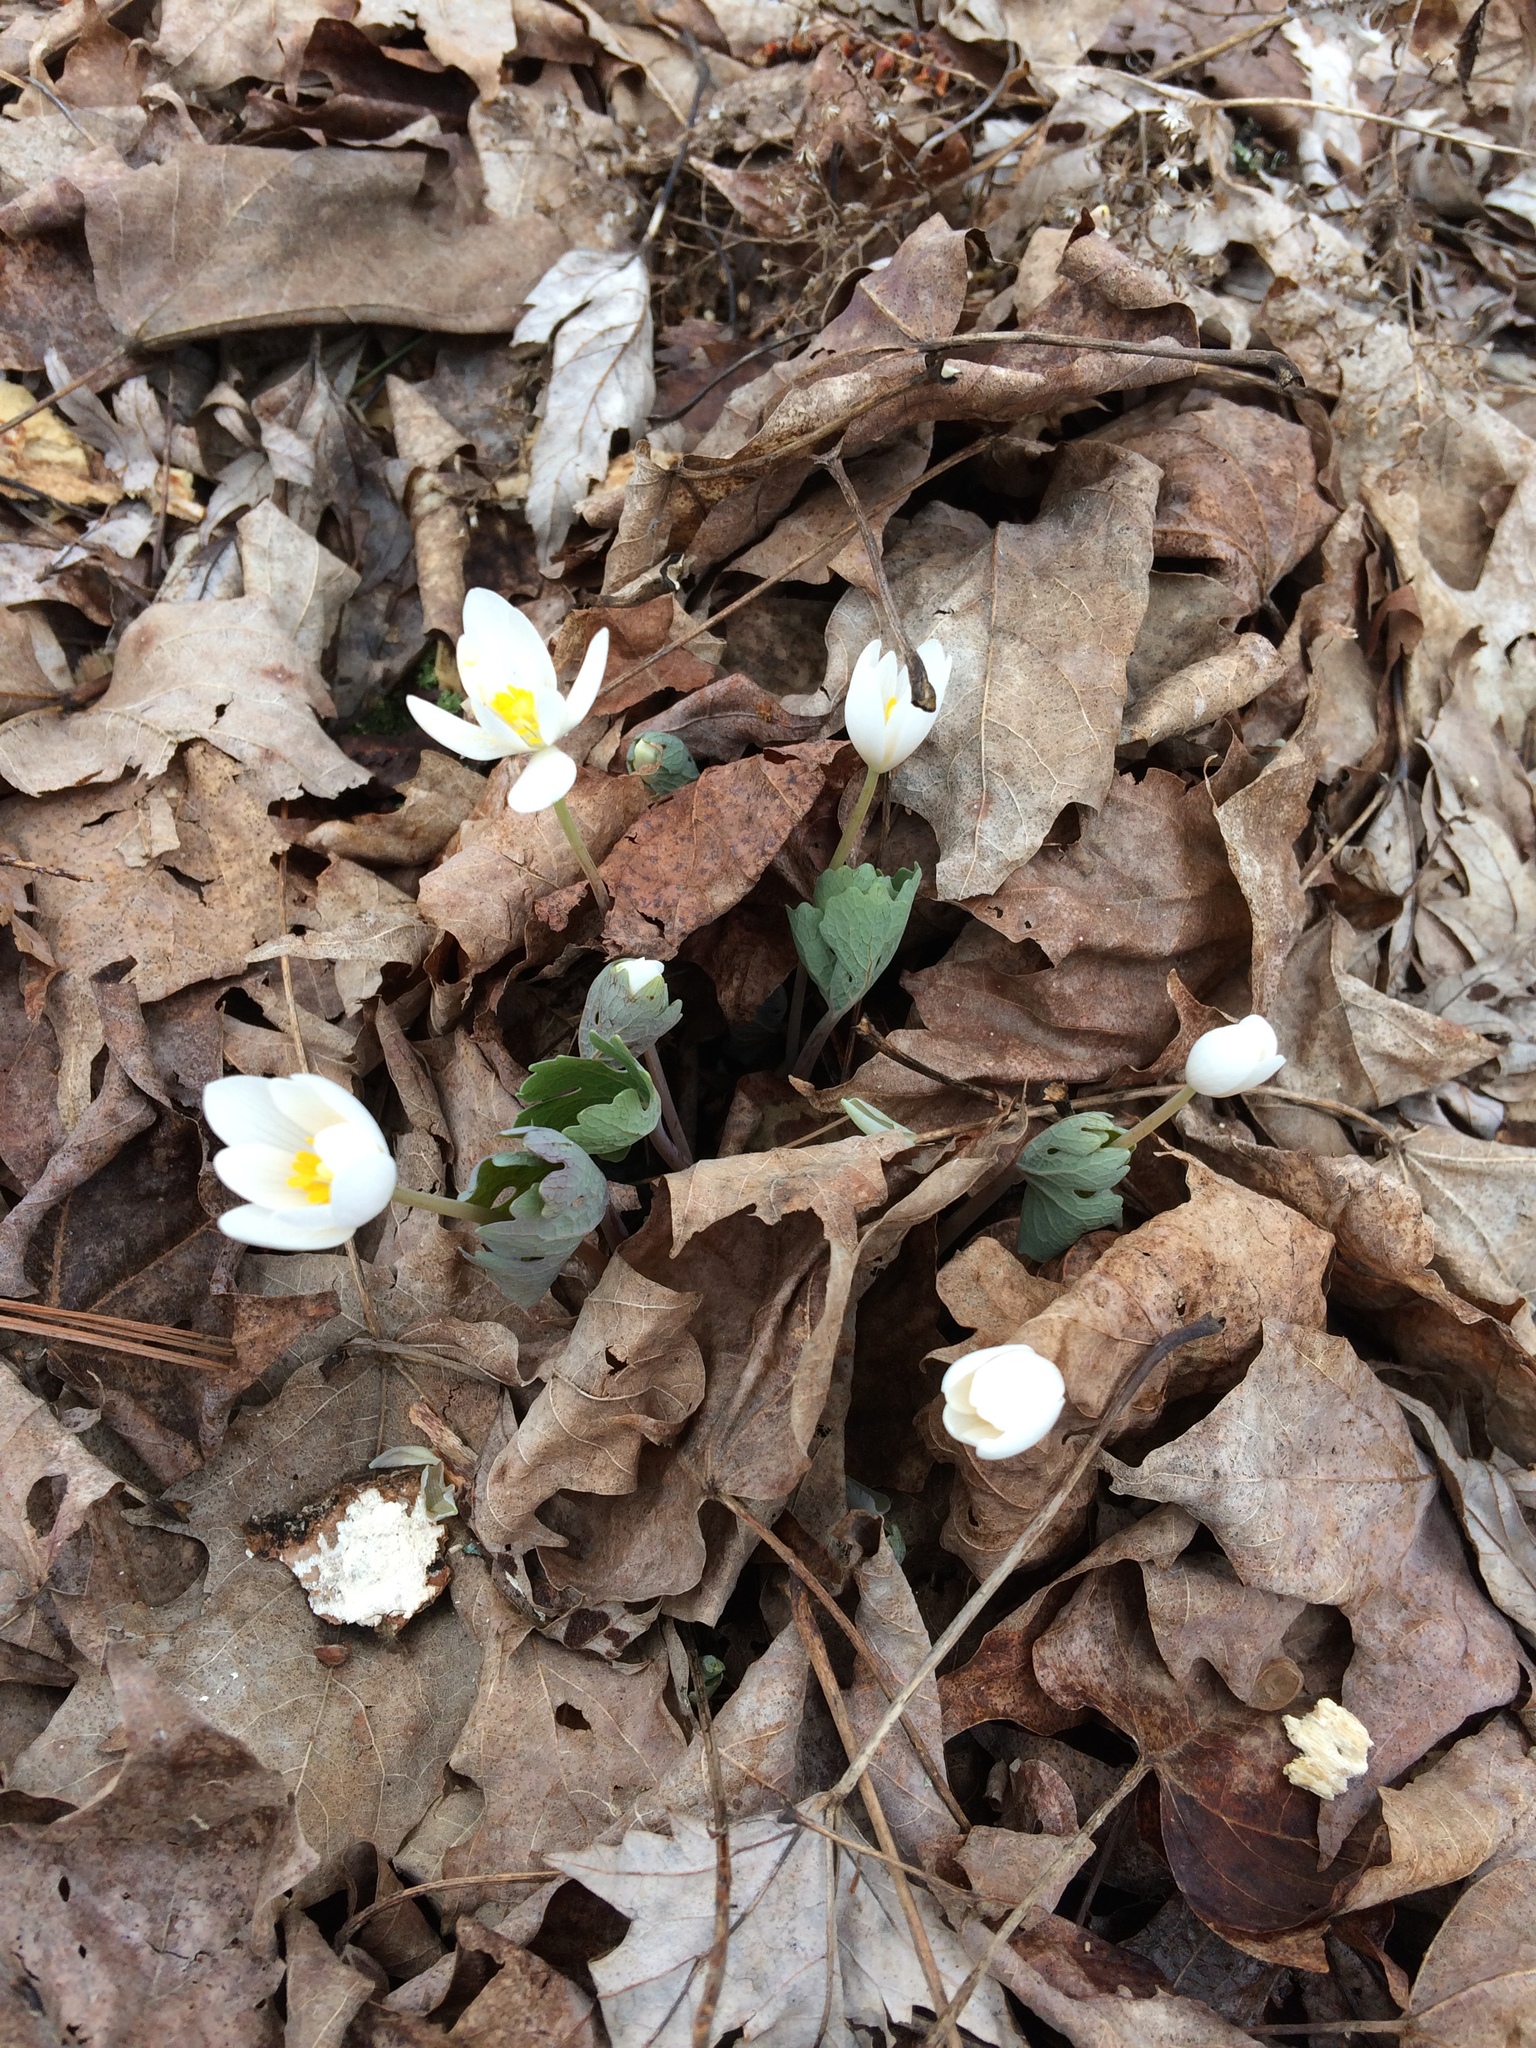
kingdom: Plantae
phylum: Tracheophyta
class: Magnoliopsida
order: Ranunculales
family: Papaveraceae
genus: Sanguinaria
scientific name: Sanguinaria canadensis
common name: Bloodroot
